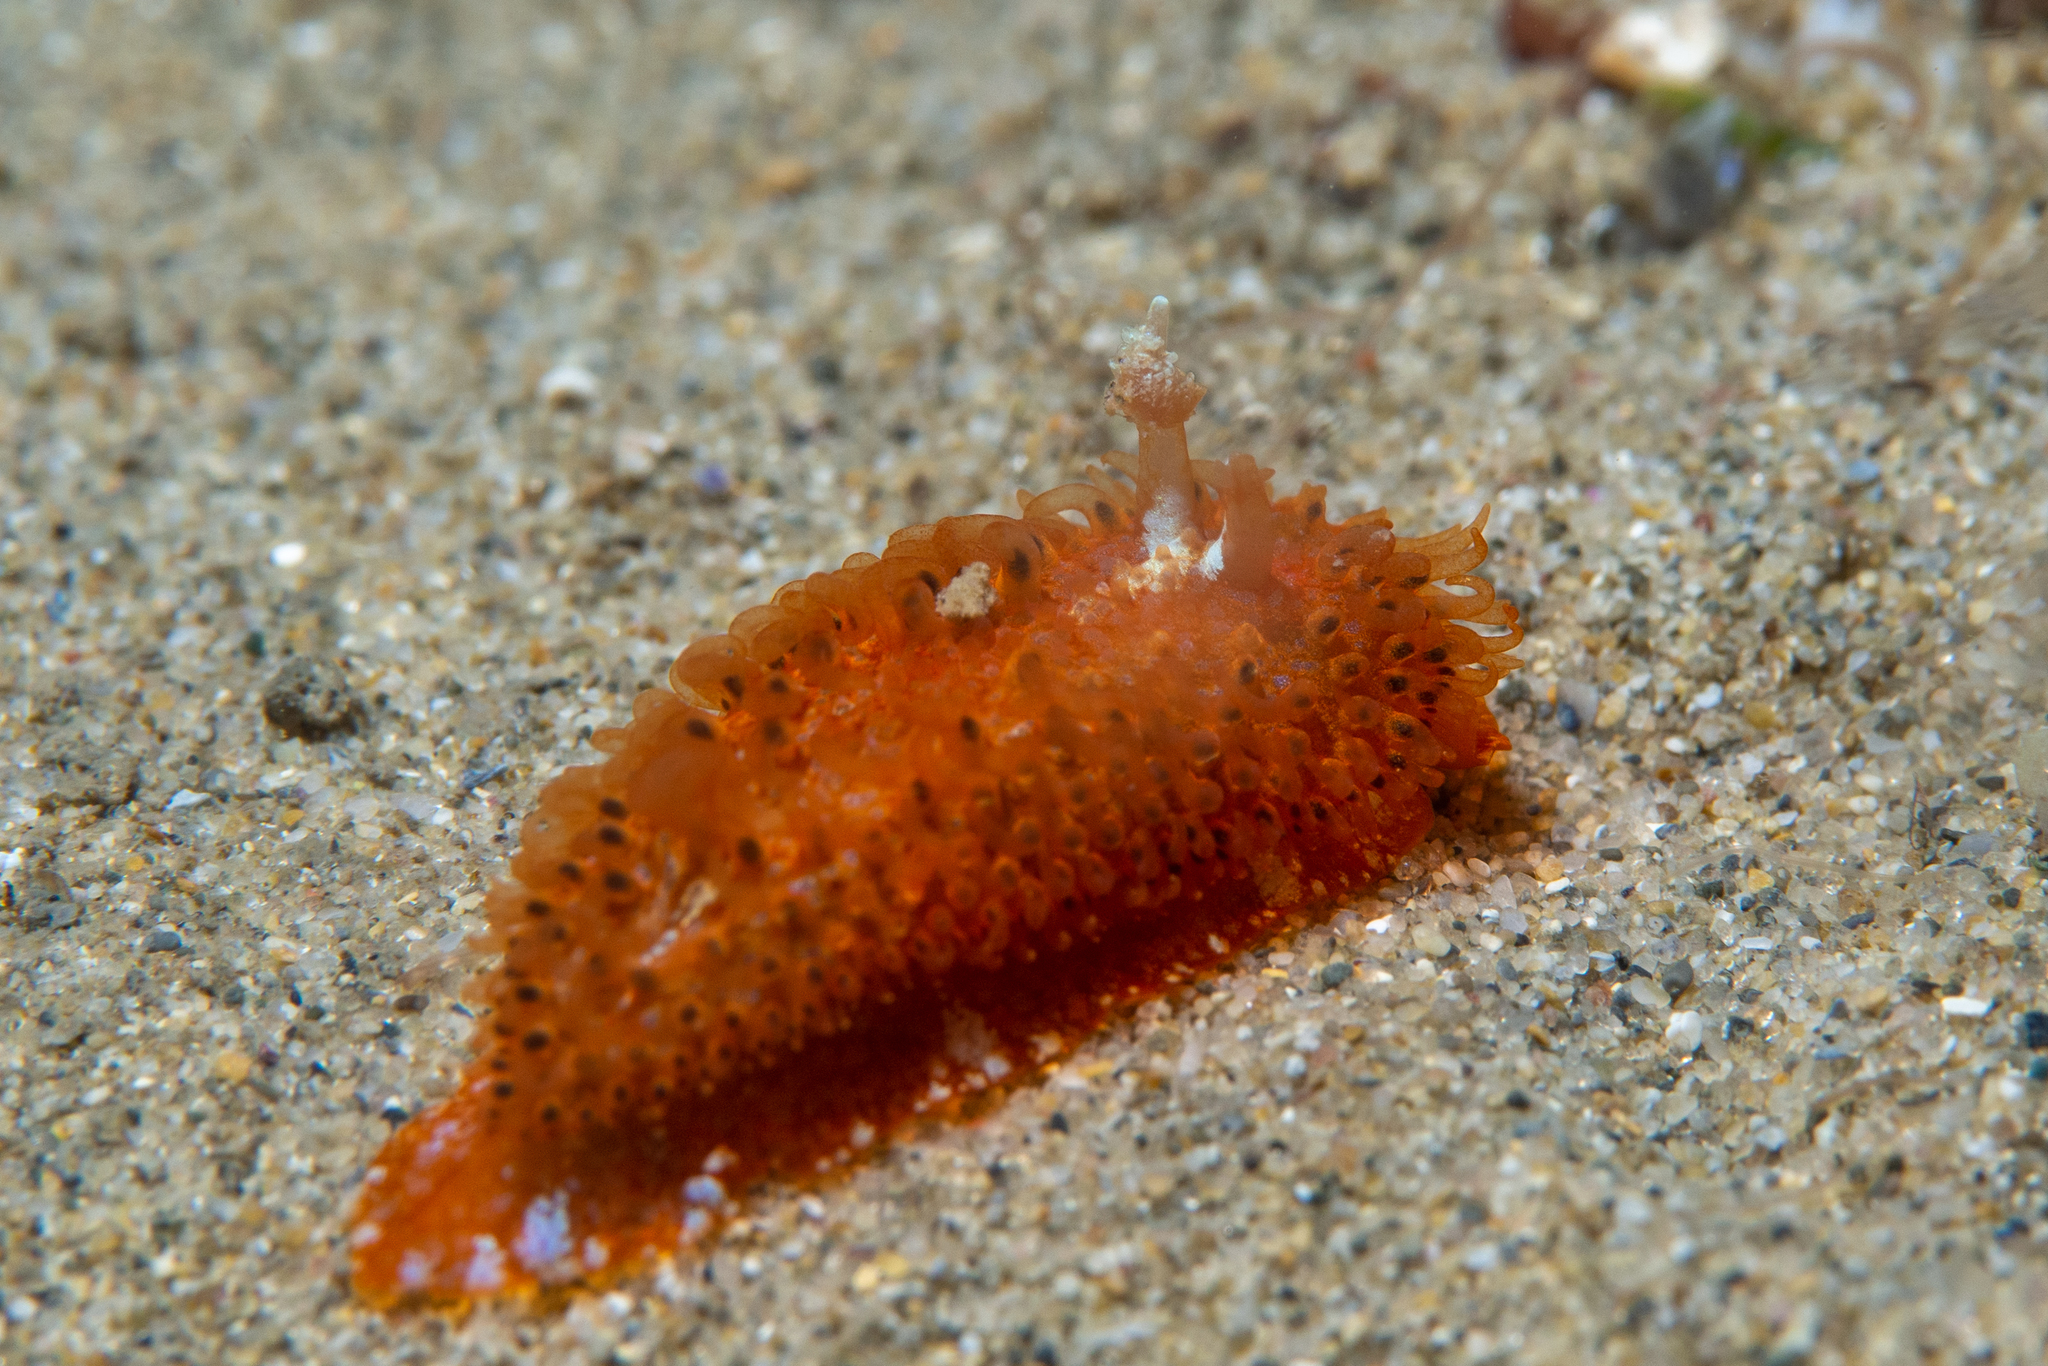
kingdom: Animalia
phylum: Mollusca
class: Gastropoda
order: Nudibranchia
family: Madrellidae
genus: Madrella
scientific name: Madrella ferruginosa
